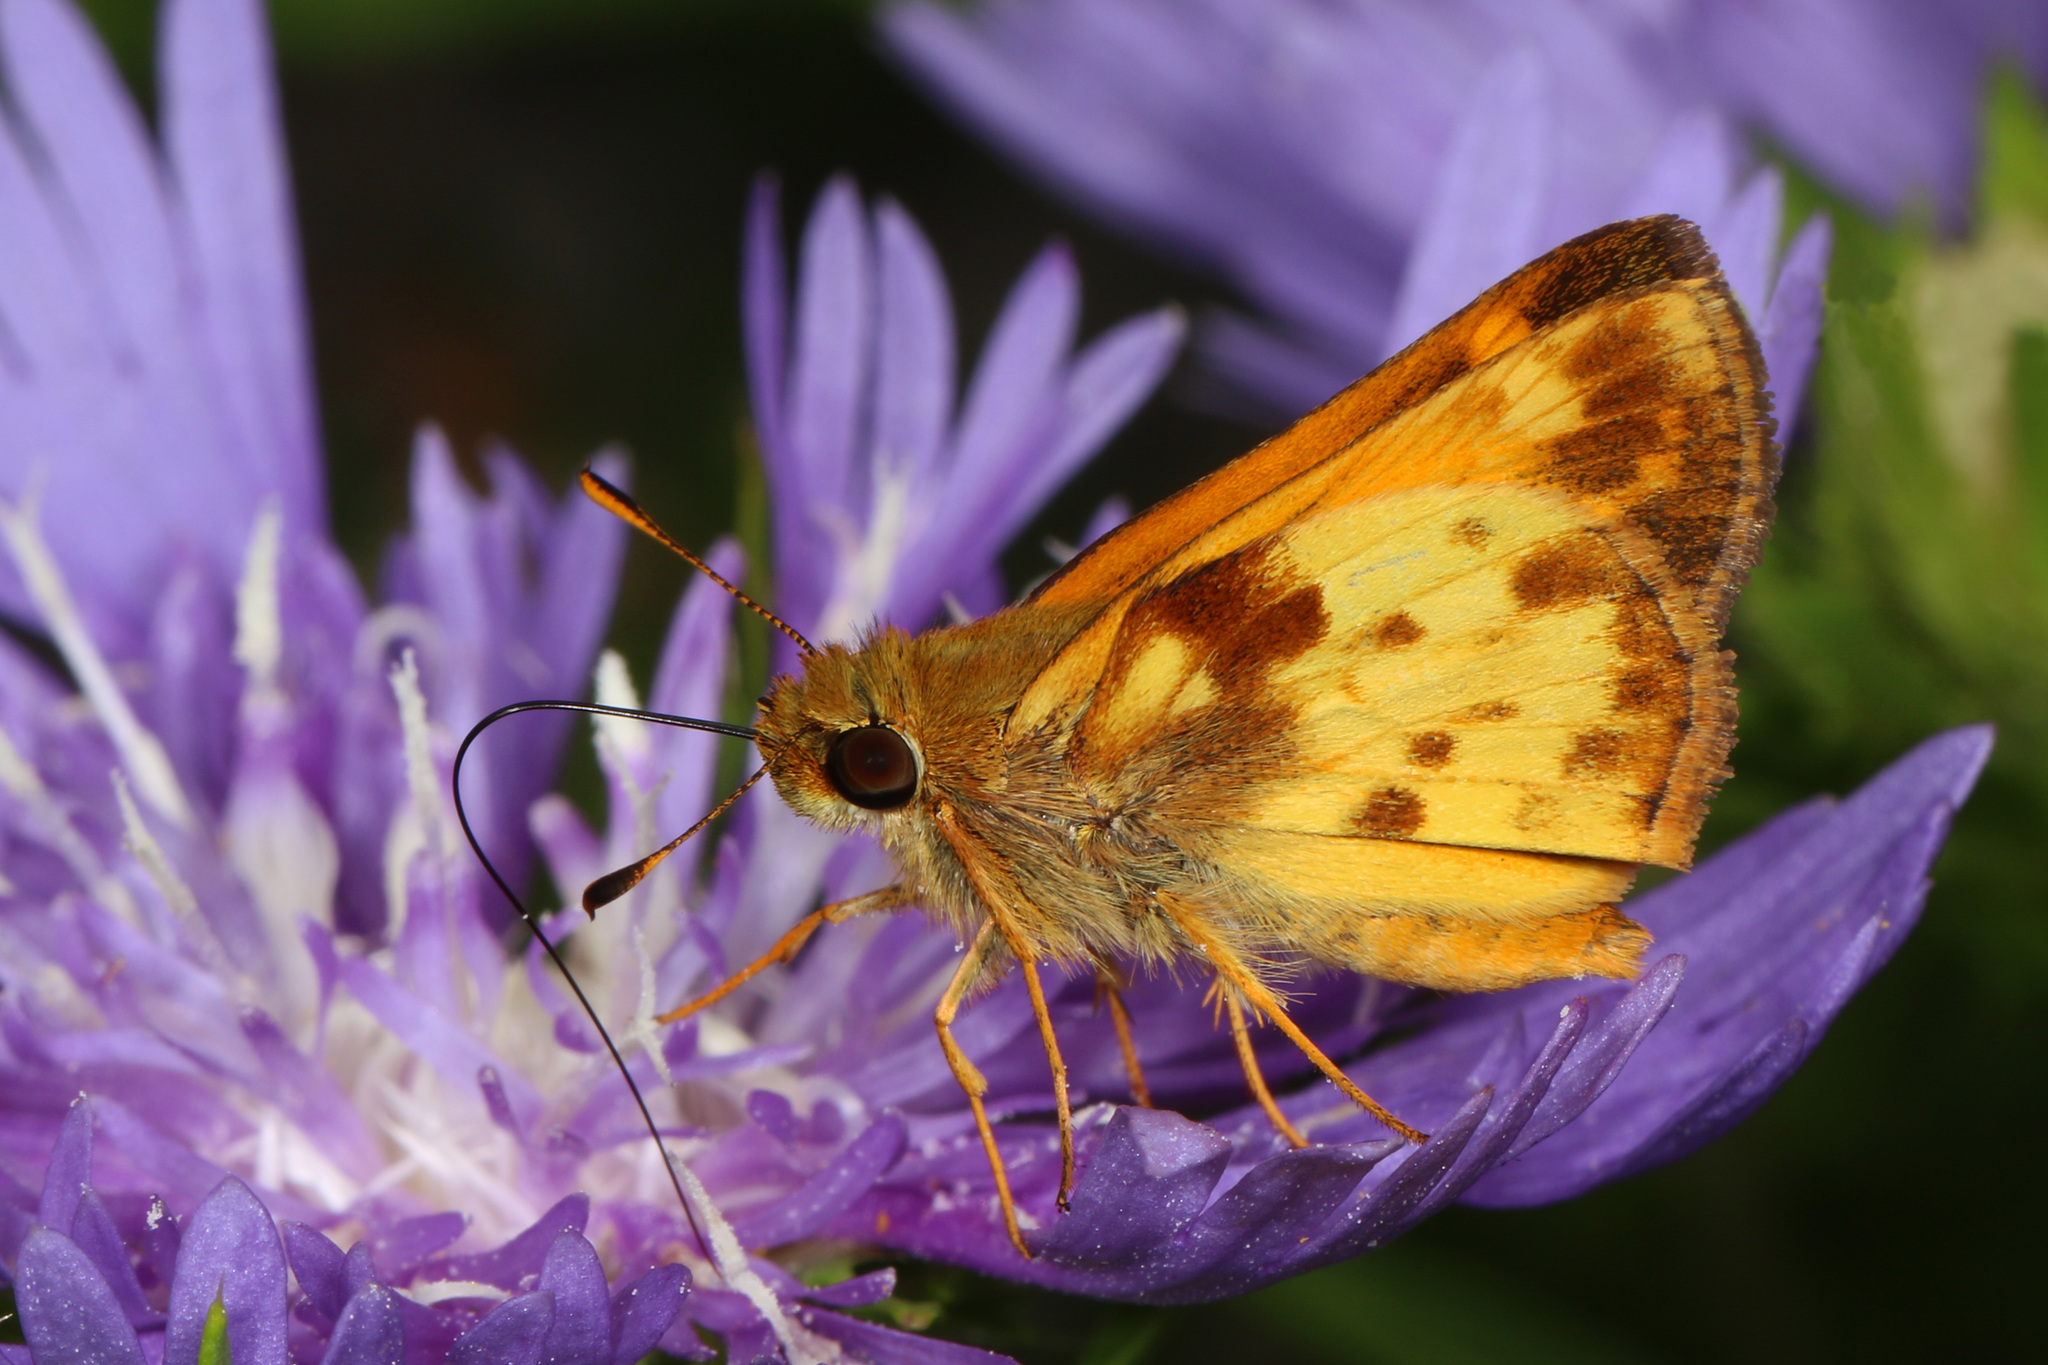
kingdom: Animalia
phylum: Arthropoda
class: Insecta
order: Lepidoptera
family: Hesperiidae
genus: Lon
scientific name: Lon zabulon
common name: Zabulon skipper
